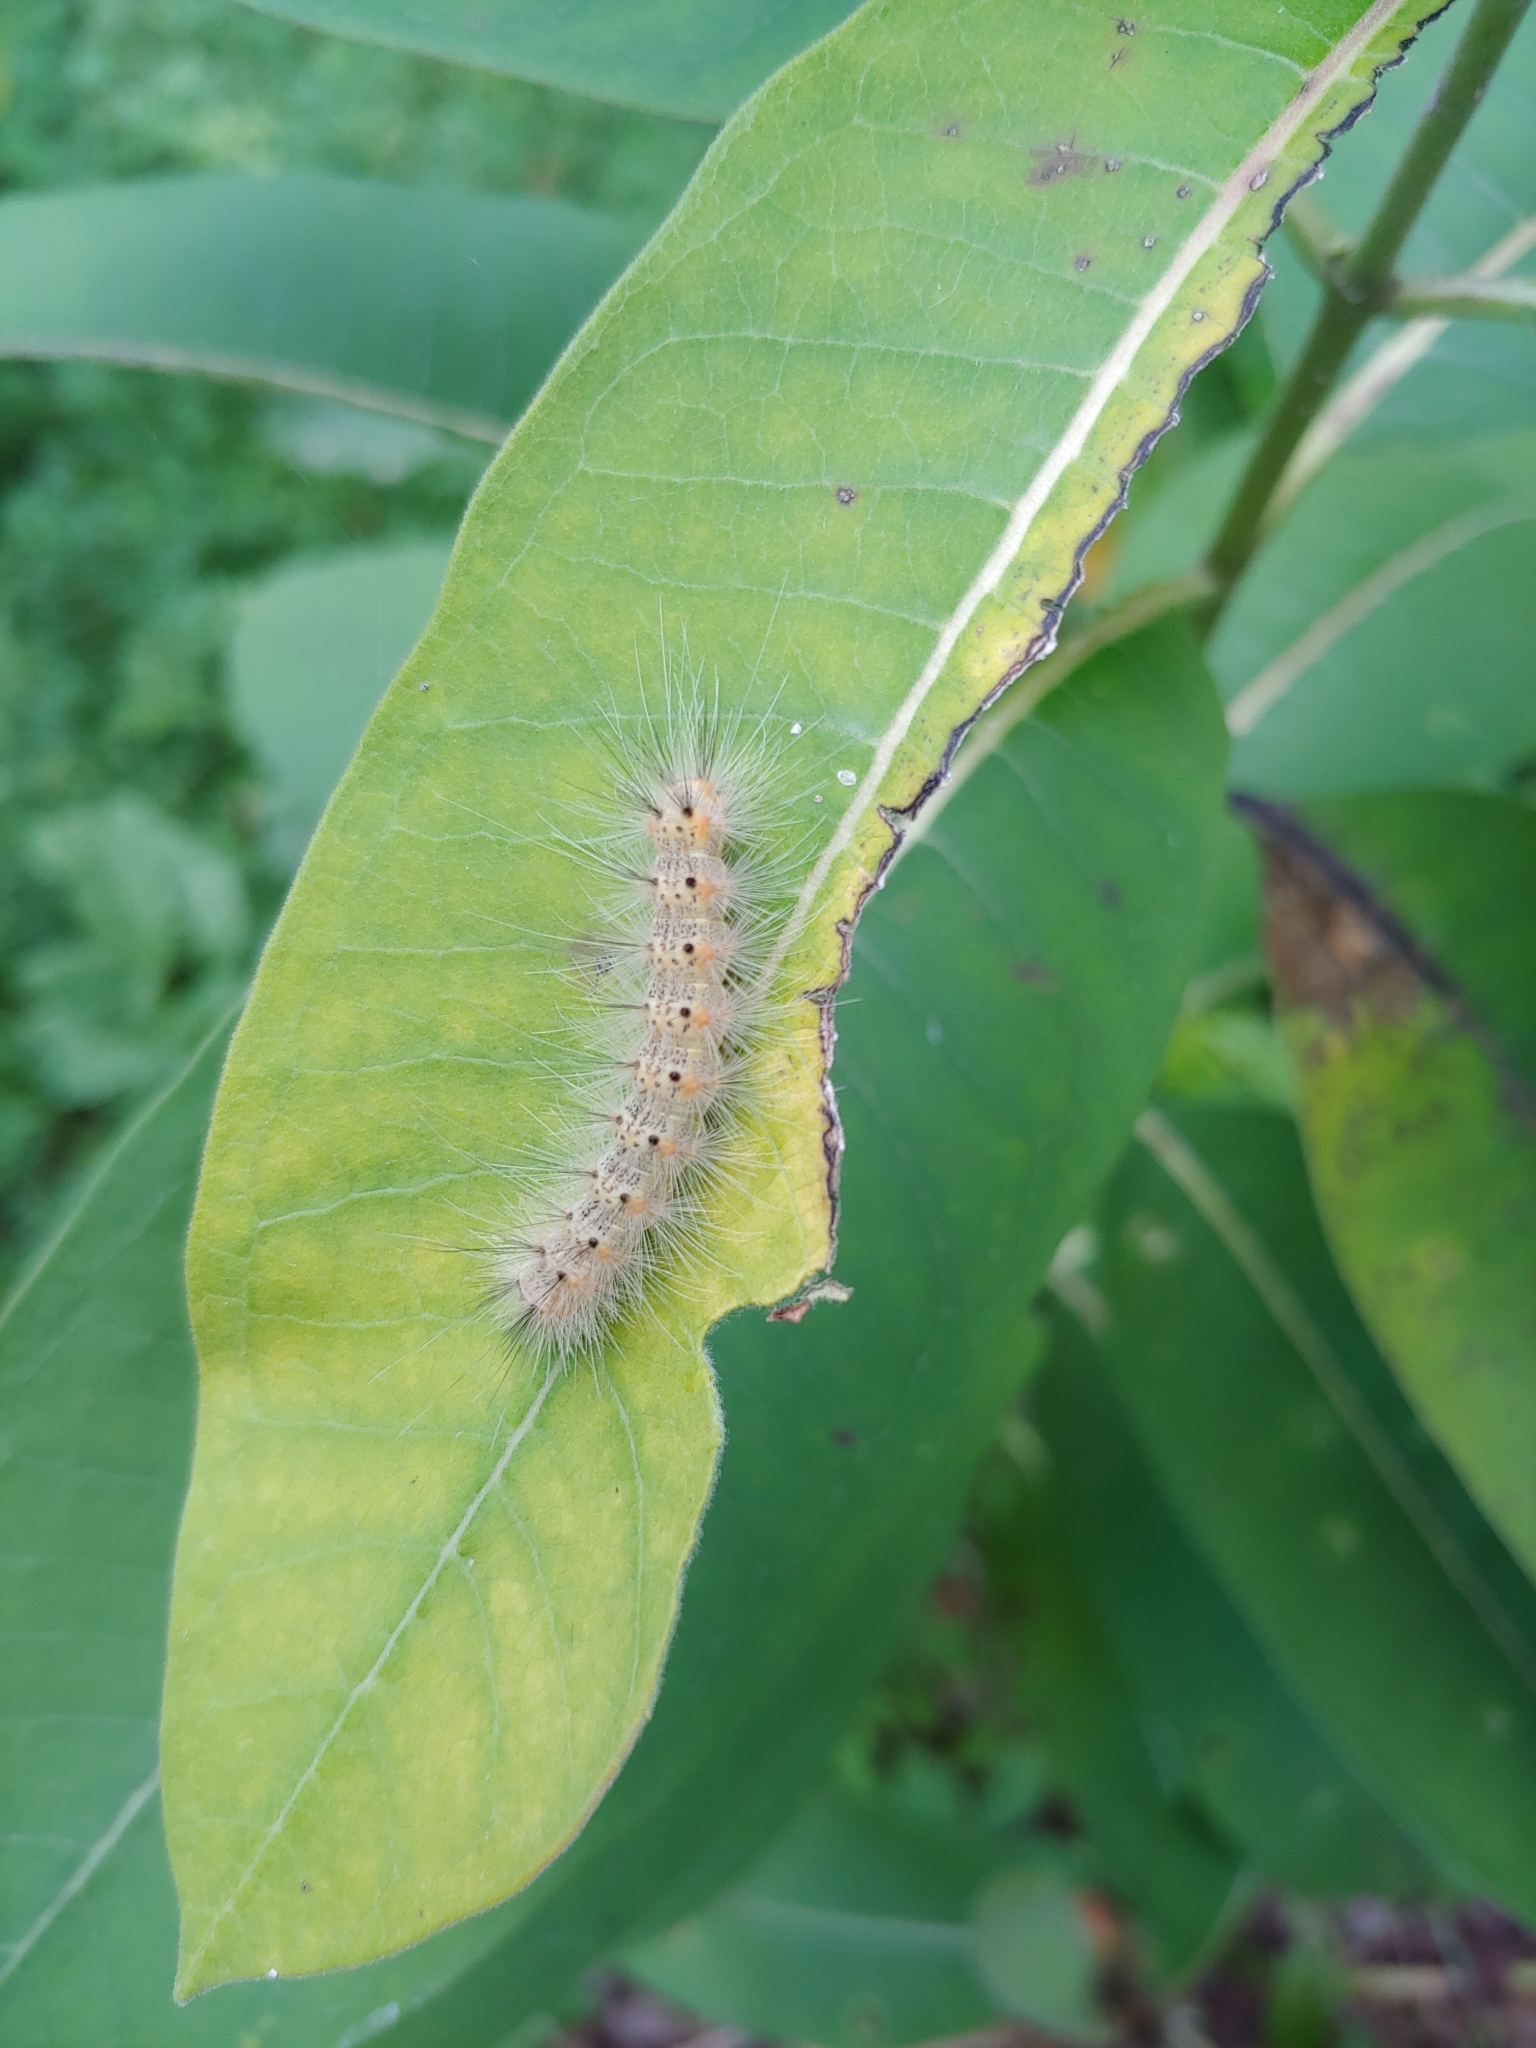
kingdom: Animalia
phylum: Arthropoda
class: Insecta
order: Lepidoptera
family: Erebidae
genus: Hyphantria
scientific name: Hyphantria cunea
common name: American white moth
